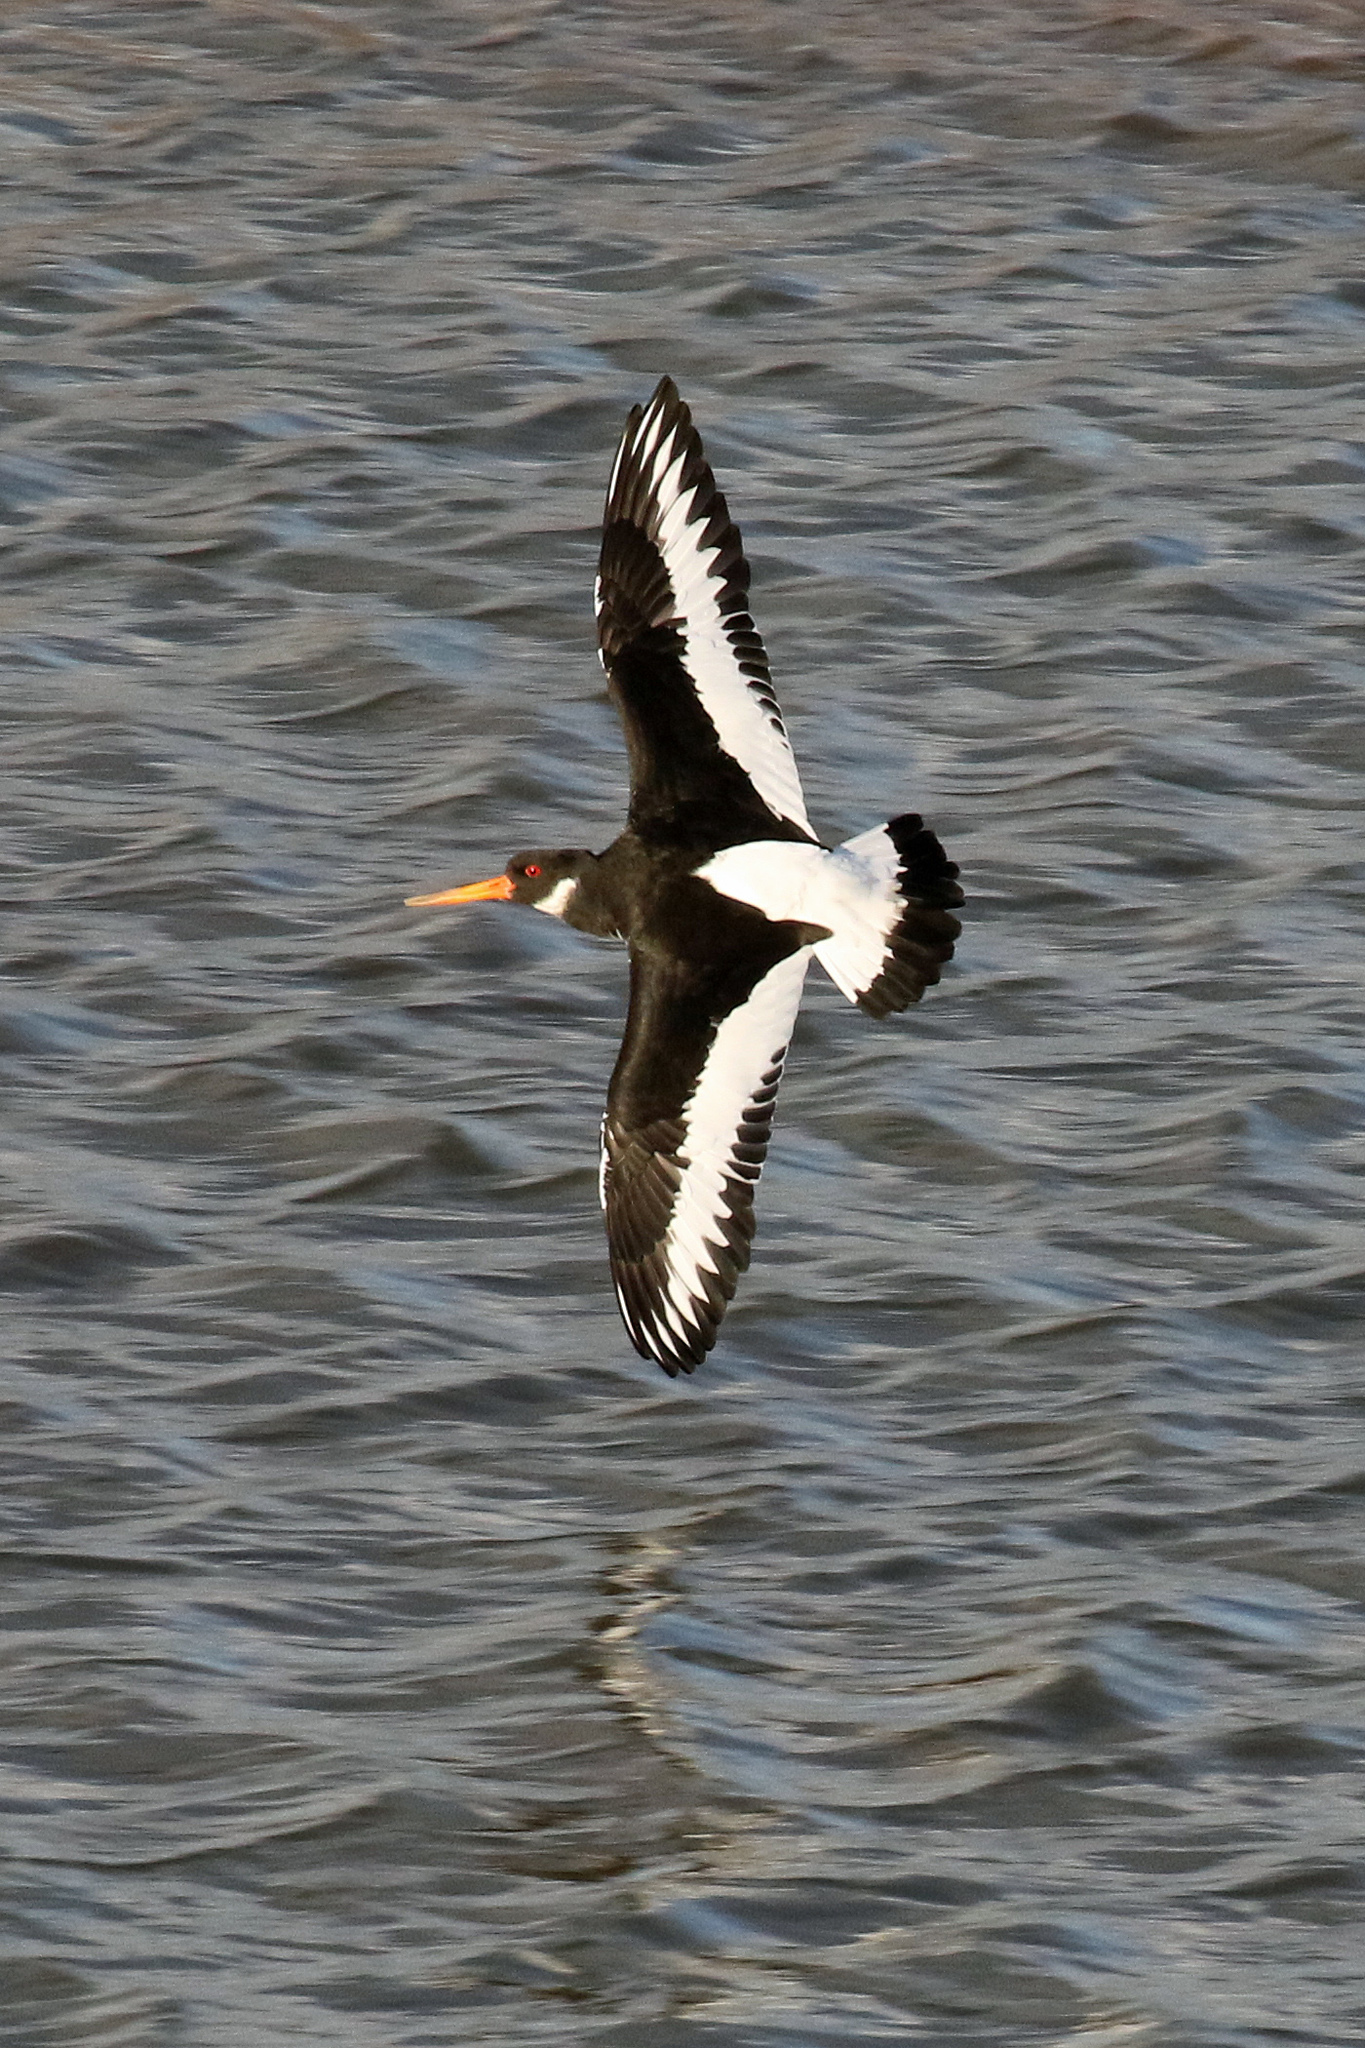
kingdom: Animalia
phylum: Chordata
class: Aves
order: Charadriiformes
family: Haematopodidae
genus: Haematopus
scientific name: Haematopus ostralegus
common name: Eurasian oystercatcher
